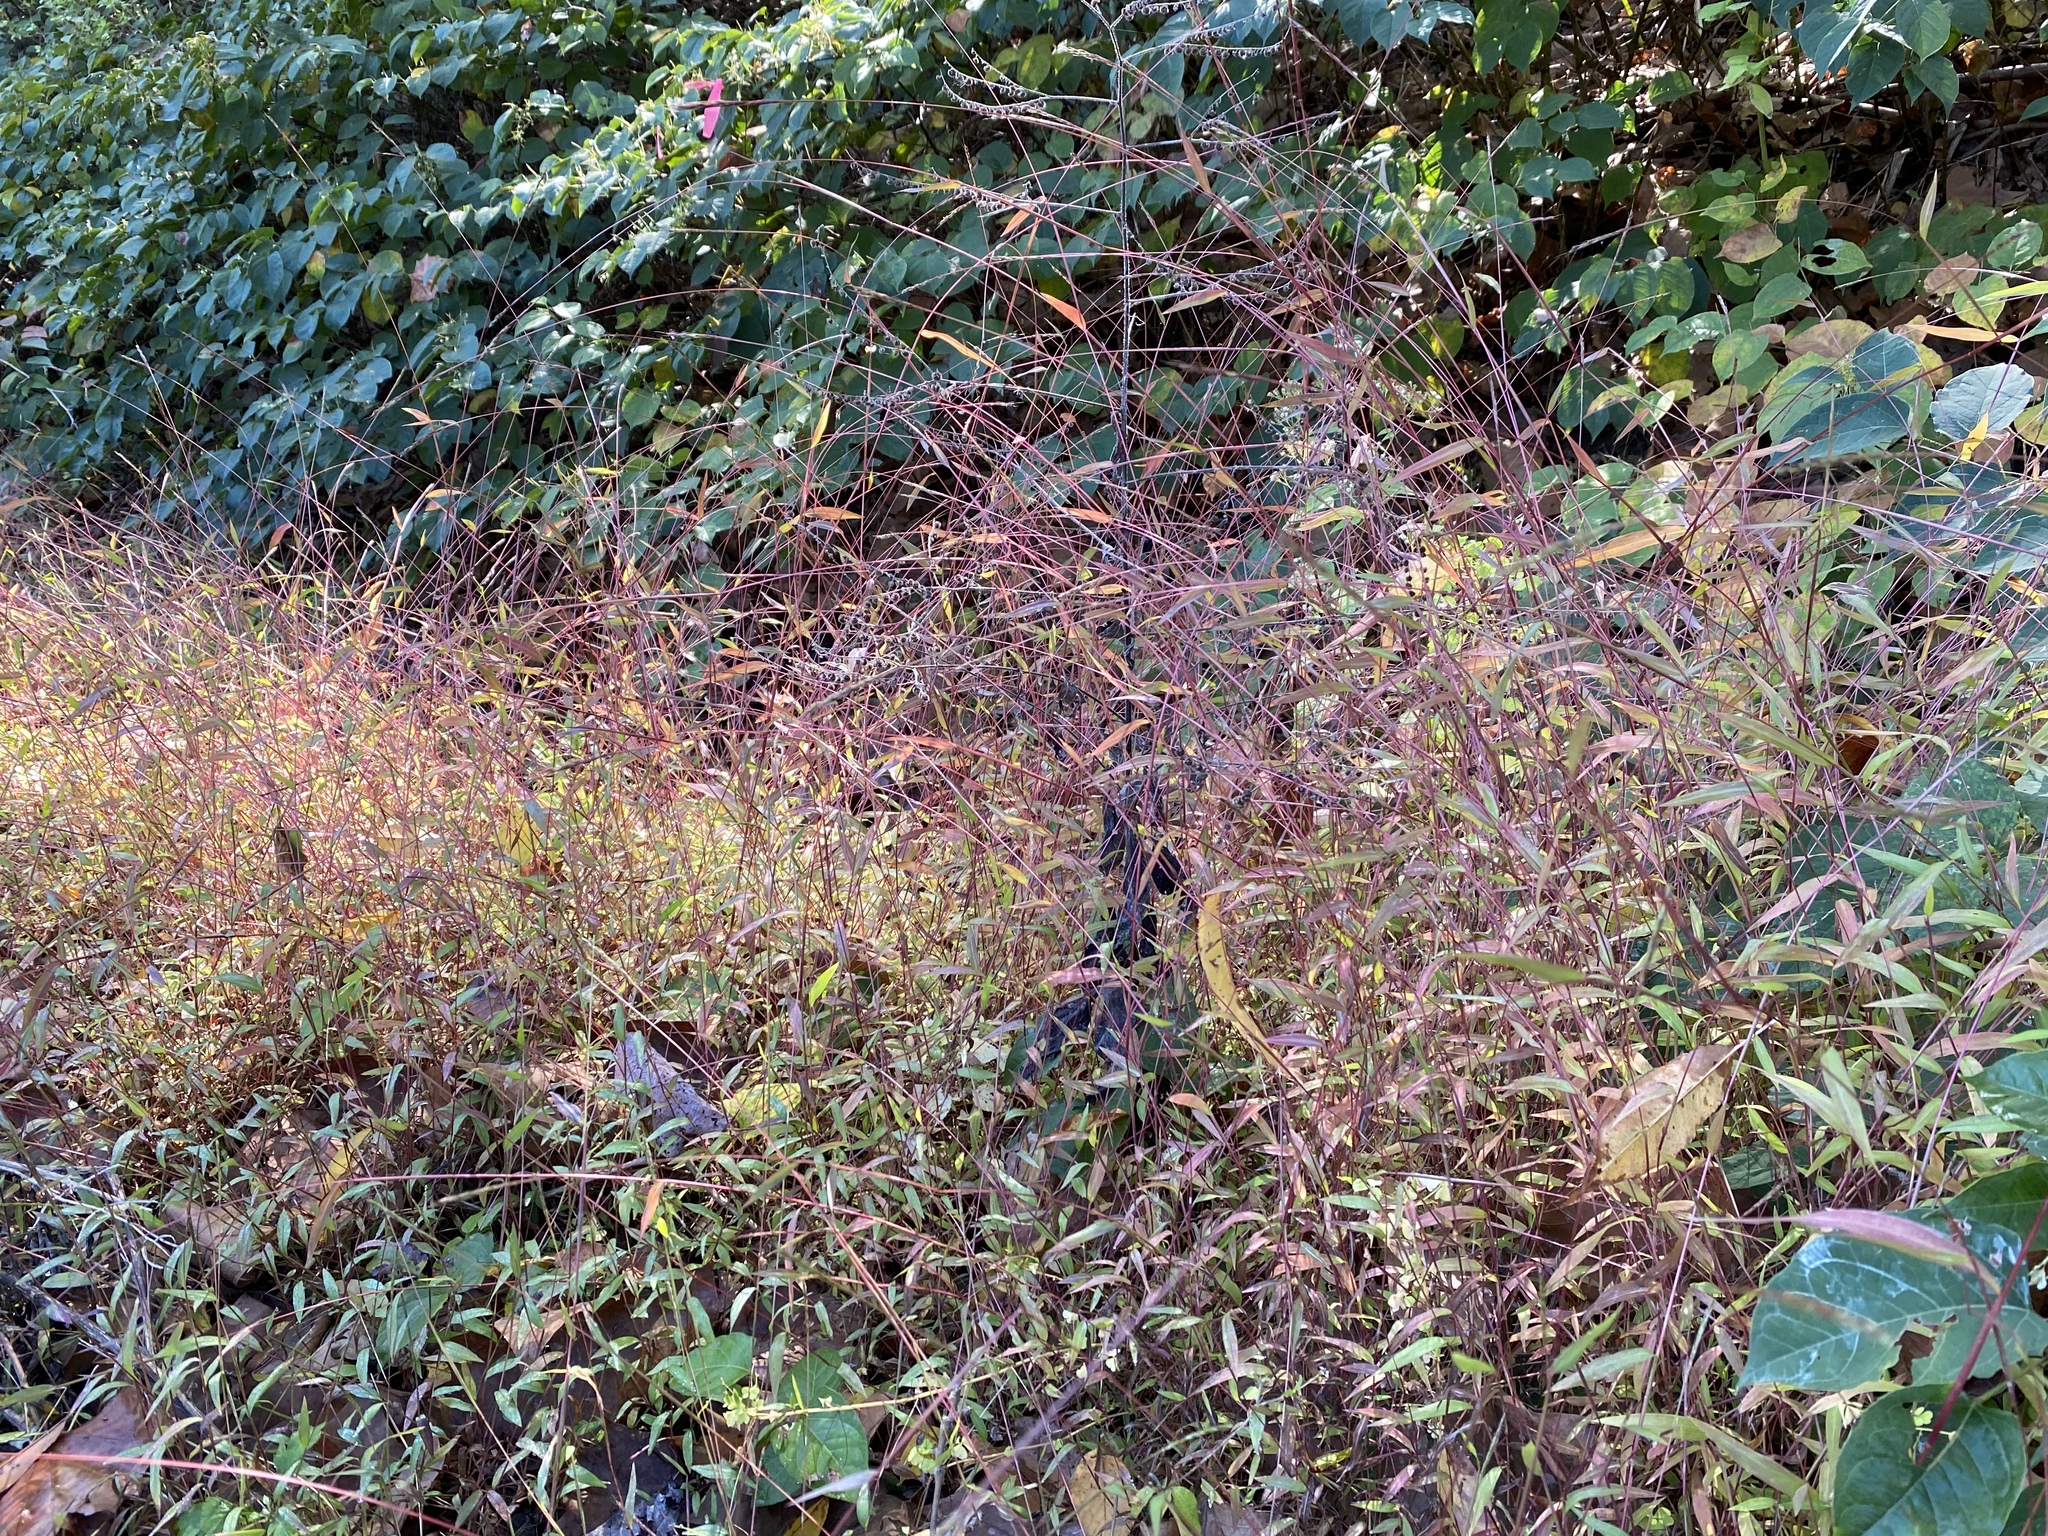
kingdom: Plantae
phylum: Tracheophyta
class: Liliopsida
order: Poales
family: Poaceae
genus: Microstegium
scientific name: Microstegium vimineum
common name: Japanese stiltgrass
